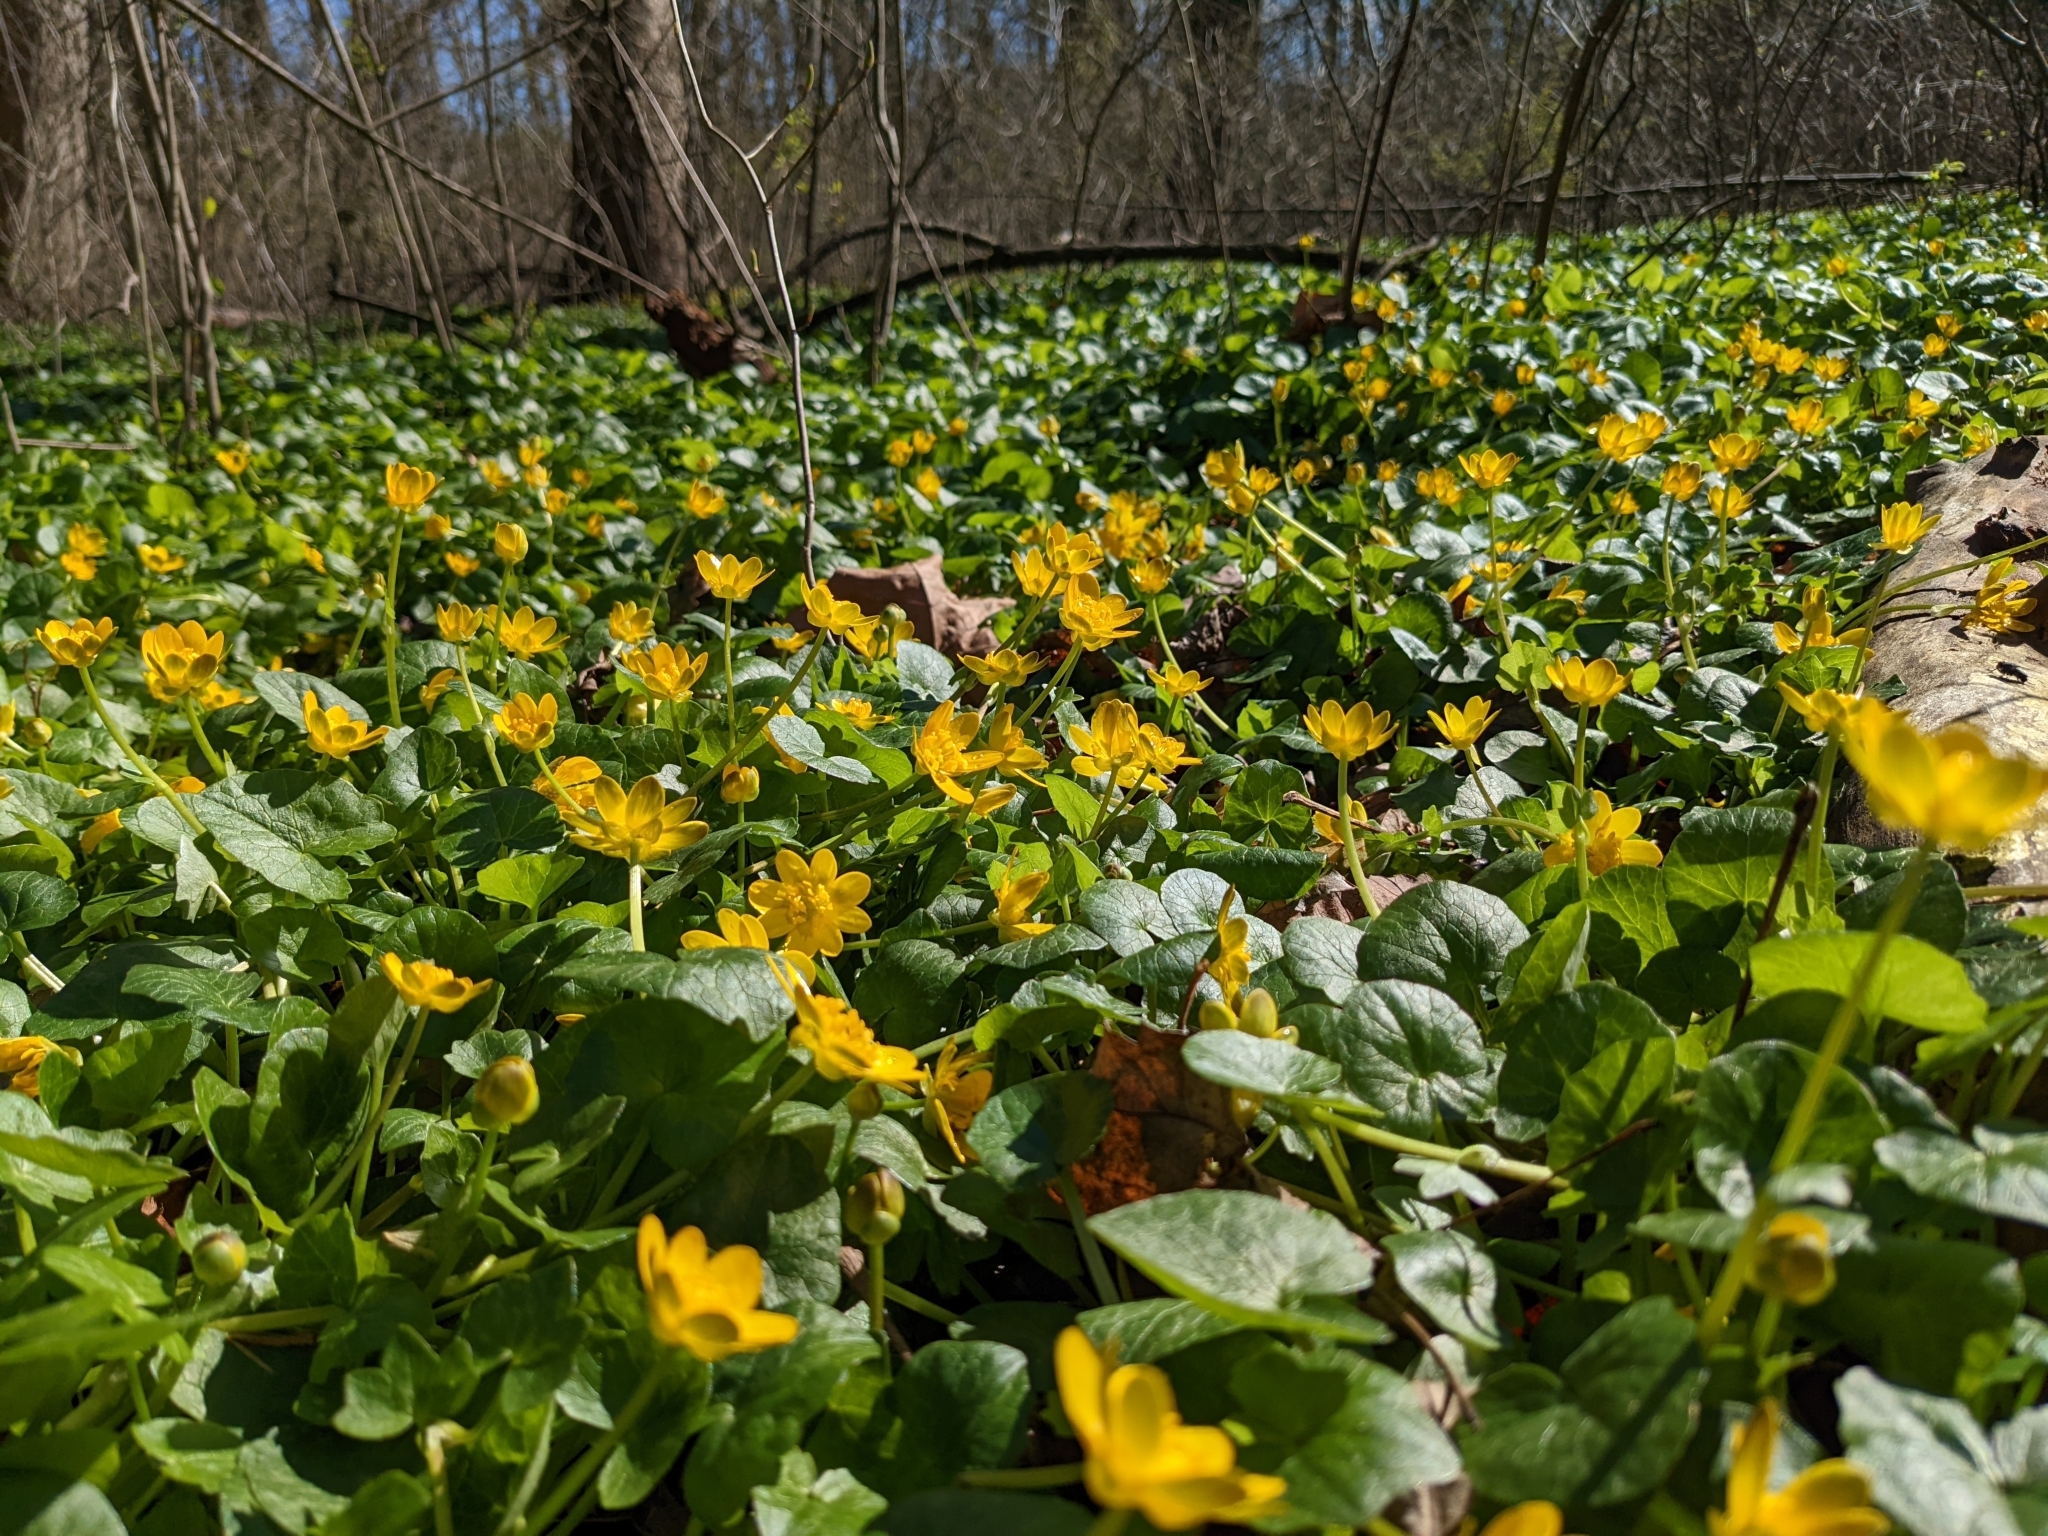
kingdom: Plantae
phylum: Tracheophyta
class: Magnoliopsida
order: Ranunculales
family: Ranunculaceae
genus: Ficaria
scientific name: Ficaria verna
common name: Lesser celandine
